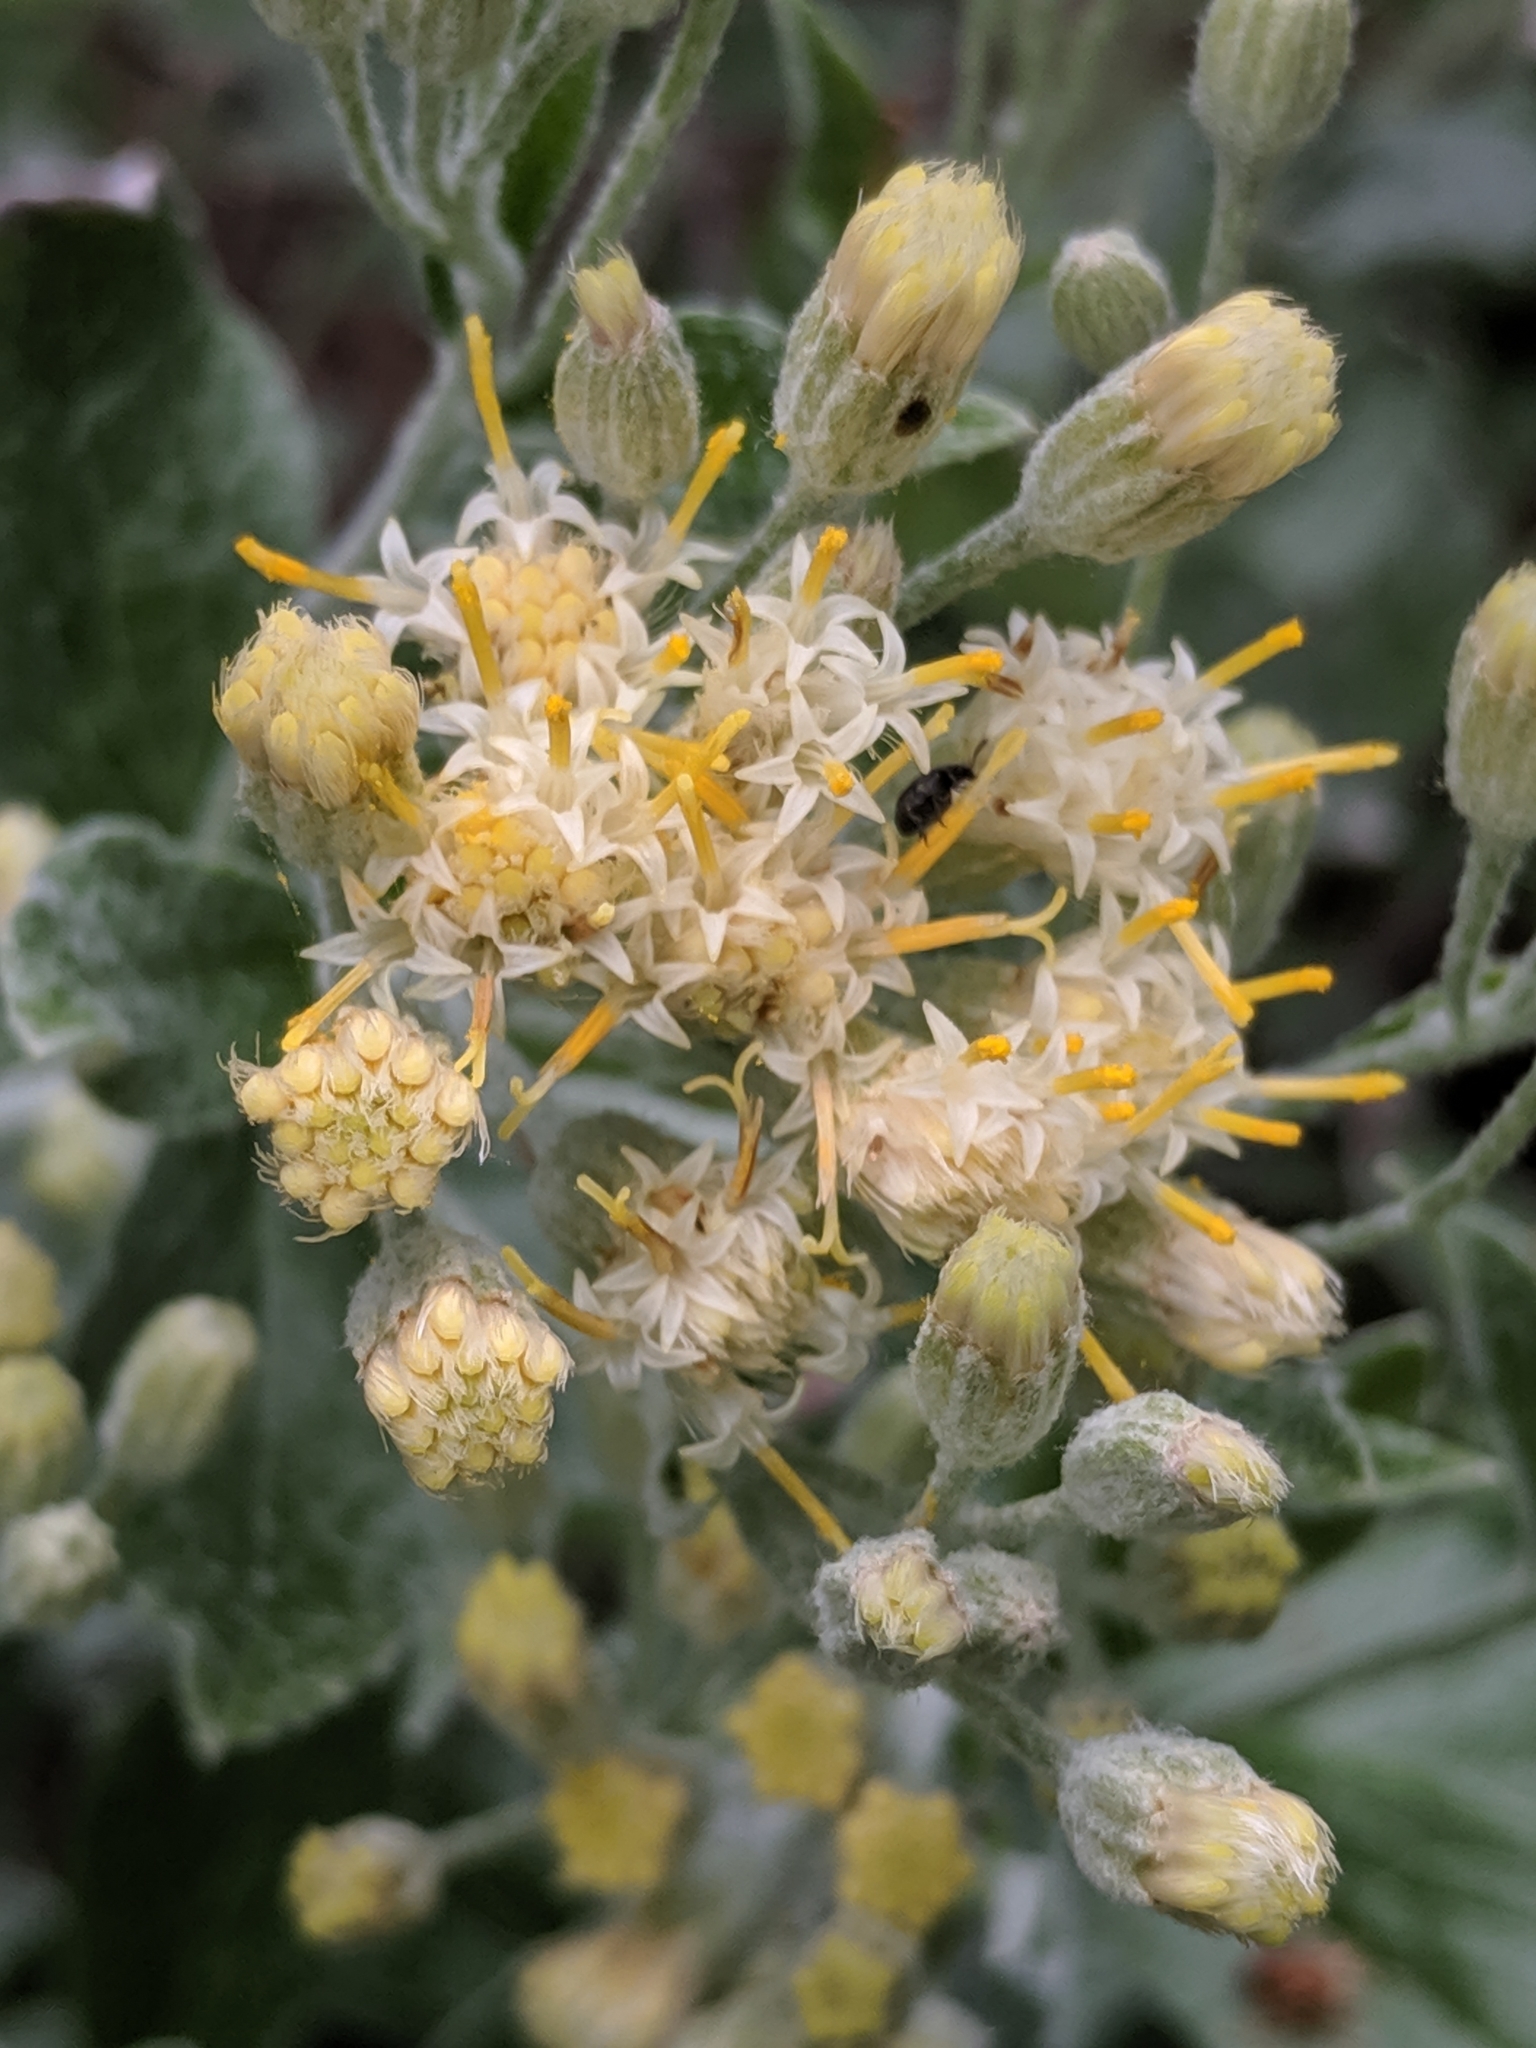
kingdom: Plantae
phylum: Tracheophyta
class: Magnoliopsida
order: Asterales
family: Asteraceae
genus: Luina
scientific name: Luina hypoleuca
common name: Little-leaved luina
